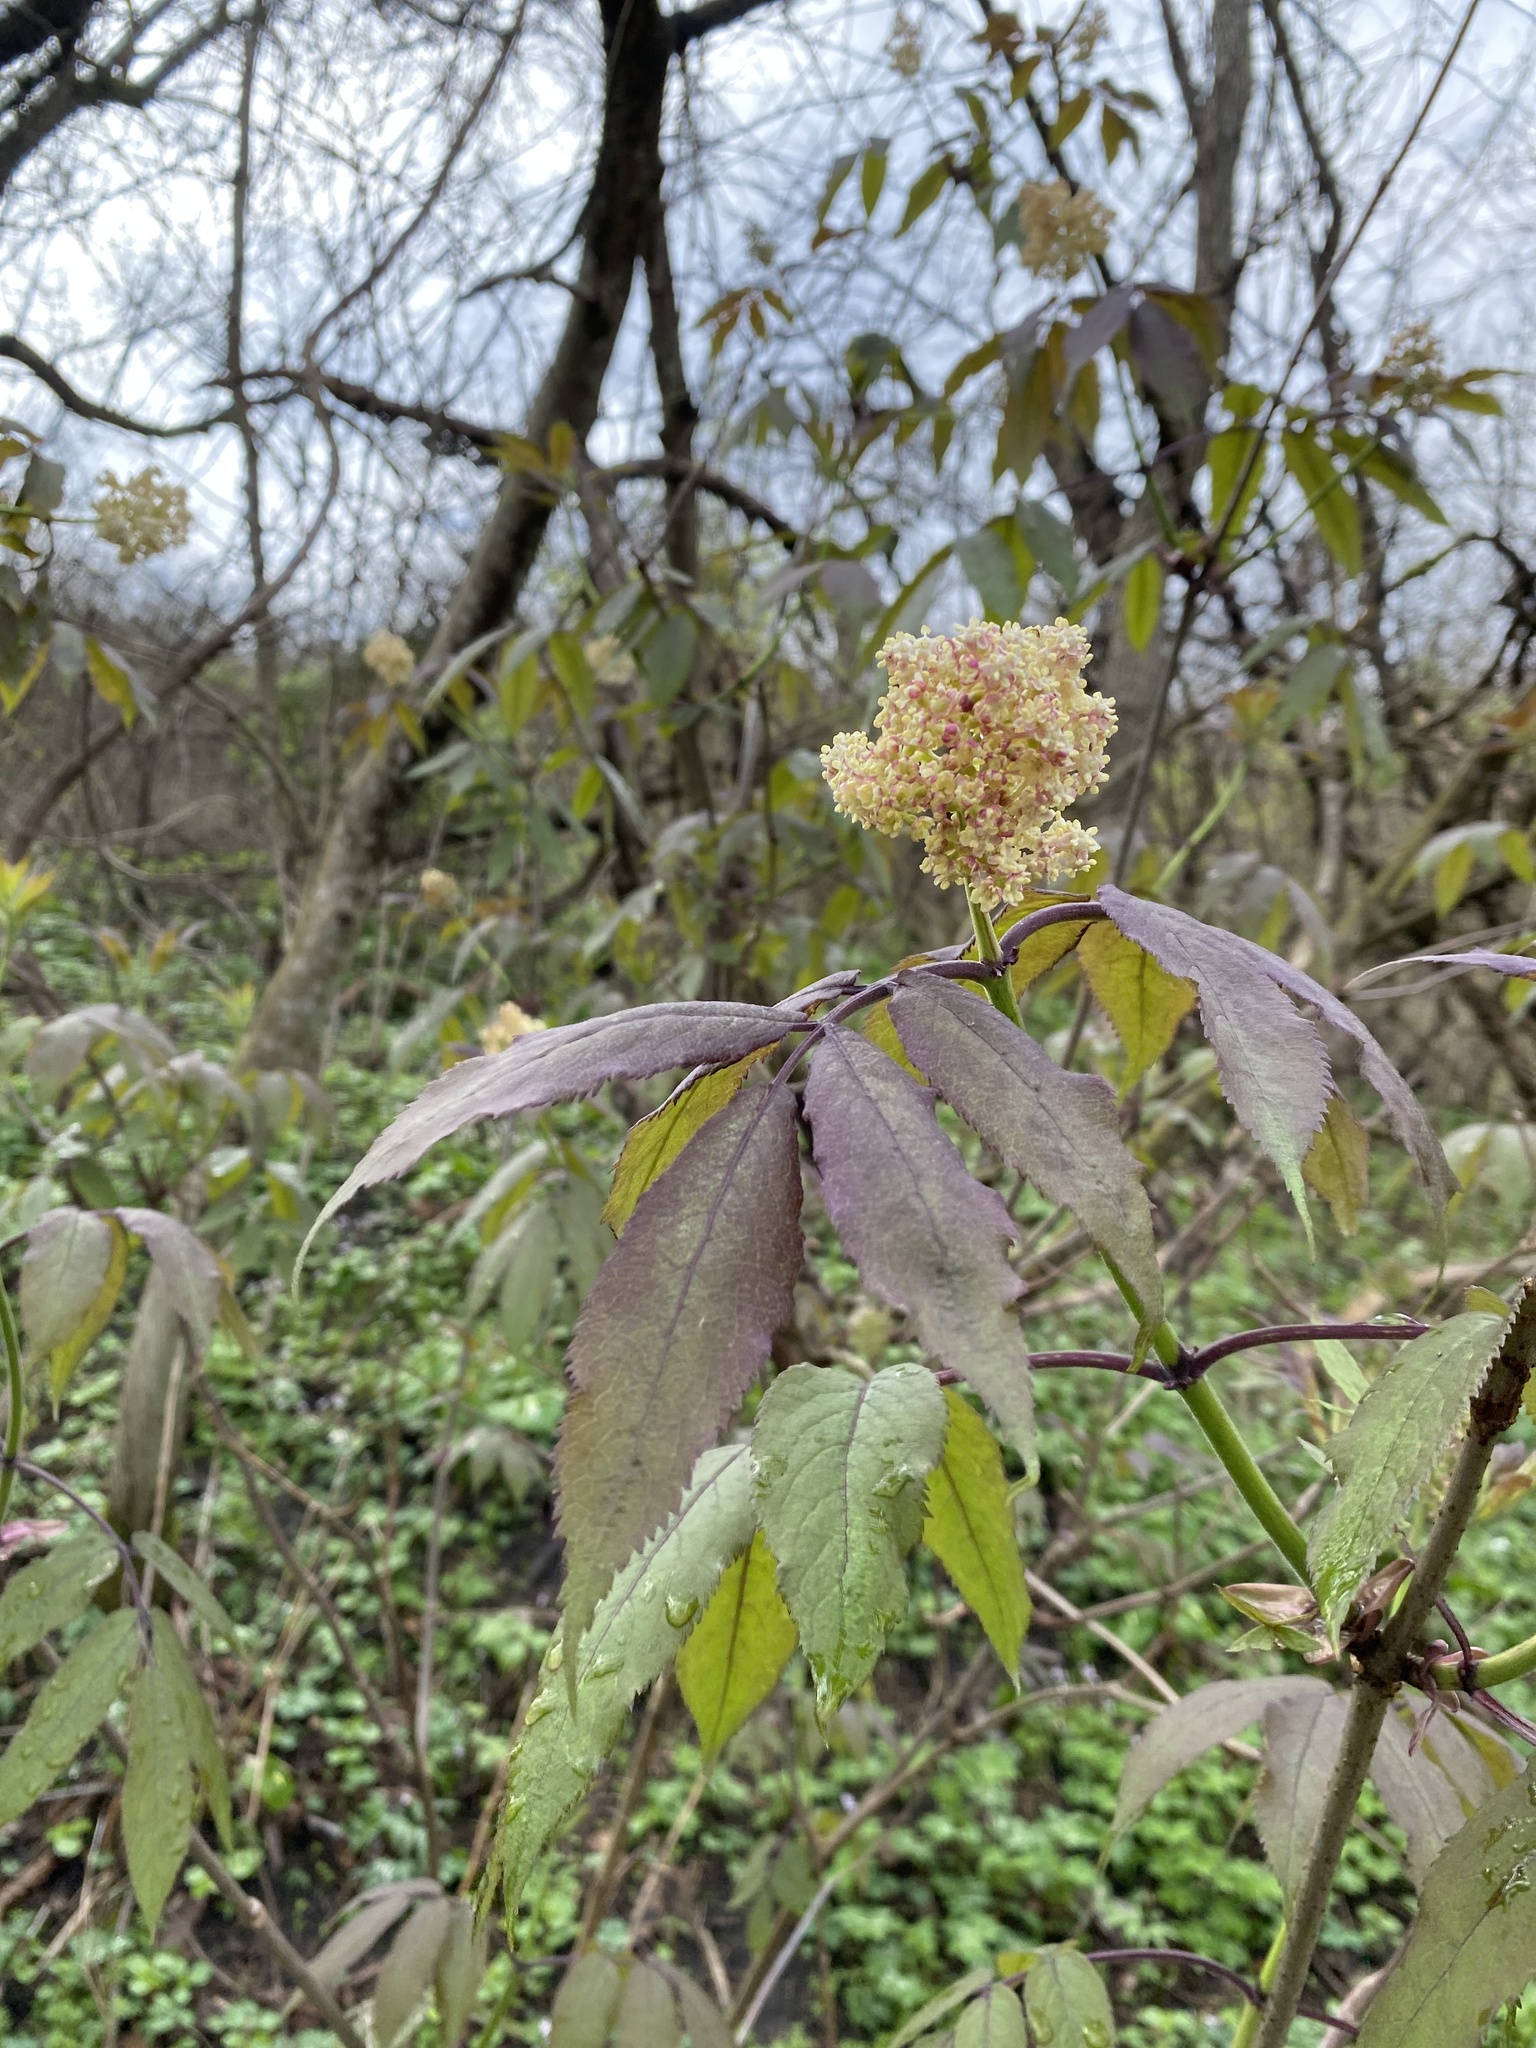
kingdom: Plantae
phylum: Tracheophyta
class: Magnoliopsida
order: Dipsacales
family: Viburnaceae
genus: Sambucus
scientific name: Sambucus racemosa
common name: Red-berried elder
